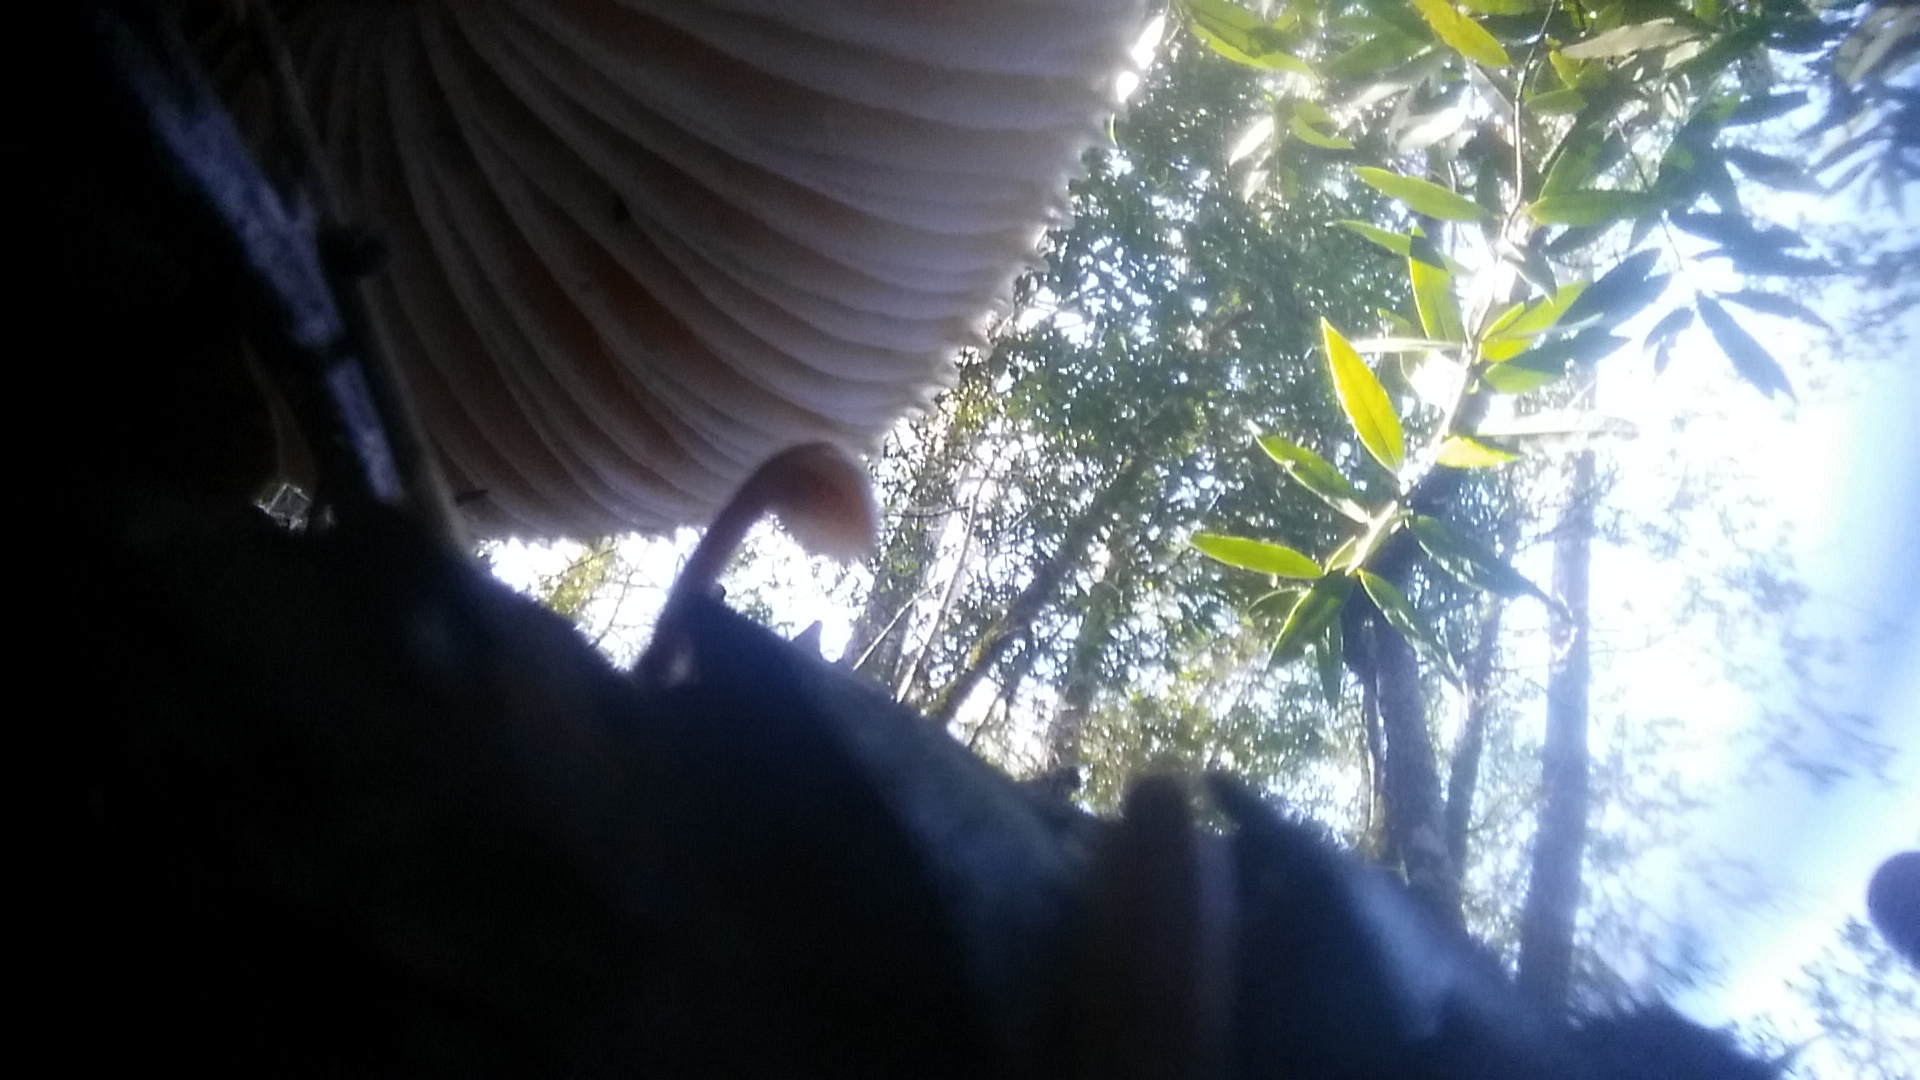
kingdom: Fungi
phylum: Basidiomycota
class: Agaricomycetes
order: Russulales
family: Auriscalpiaceae
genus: Auriscalpium
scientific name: Auriscalpium vulgare
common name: Earpick fungus
